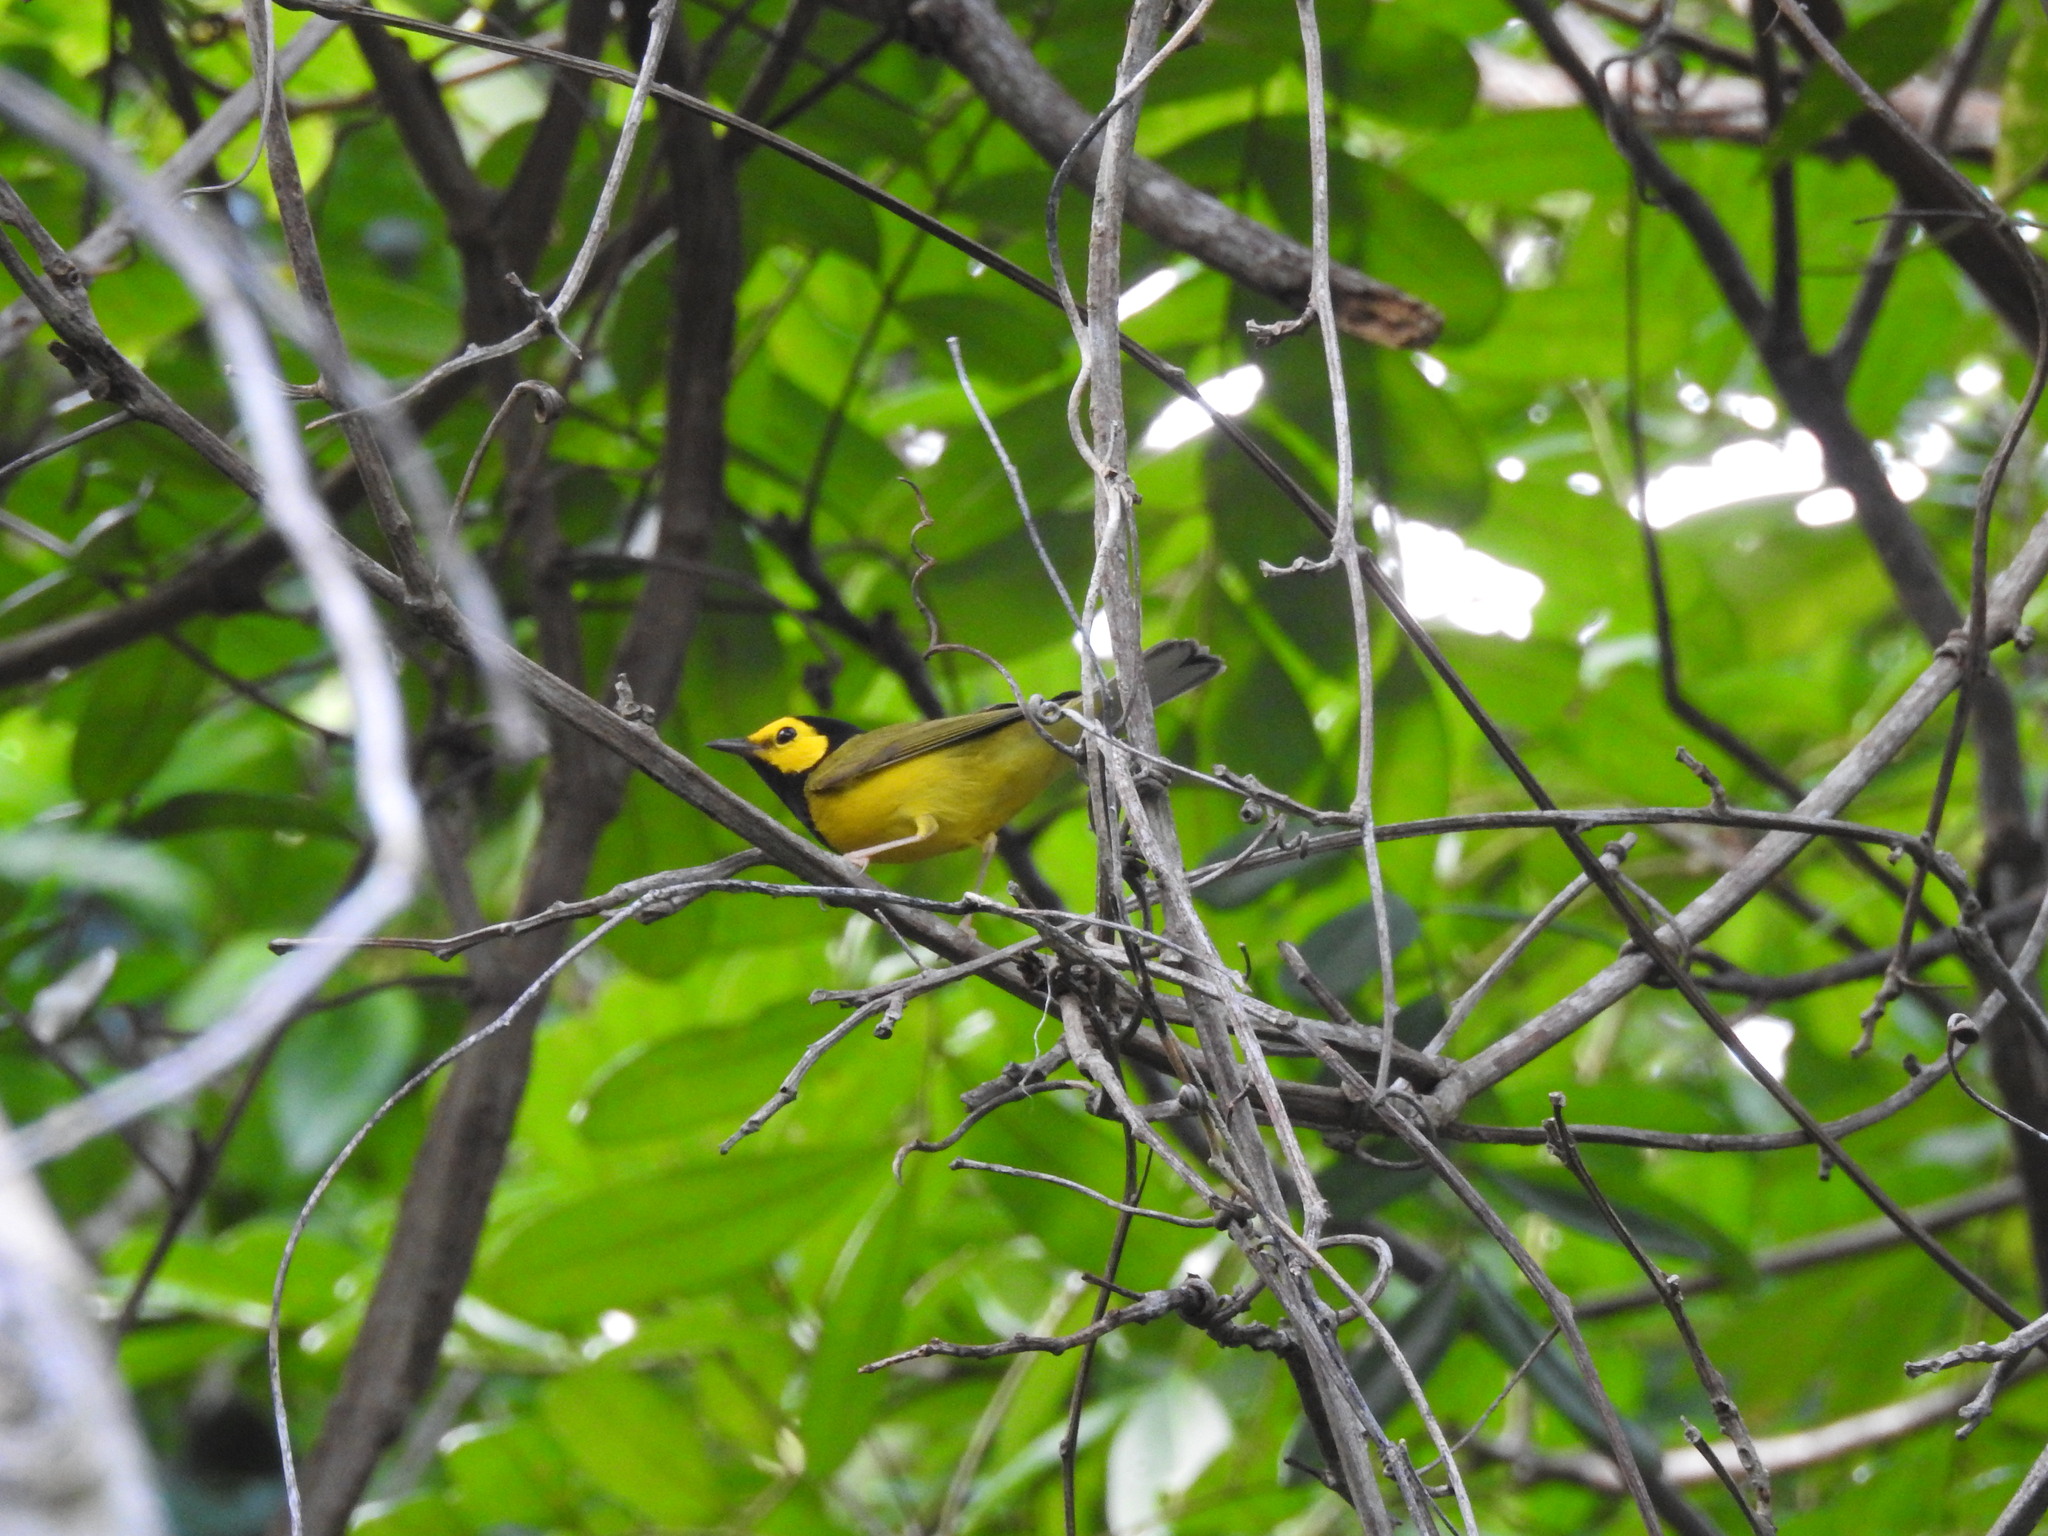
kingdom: Animalia
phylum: Chordata
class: Aves
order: Passeriformes
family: Parulidae
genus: Setophaga
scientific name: Setophaga citrina
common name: Hooded warbler
